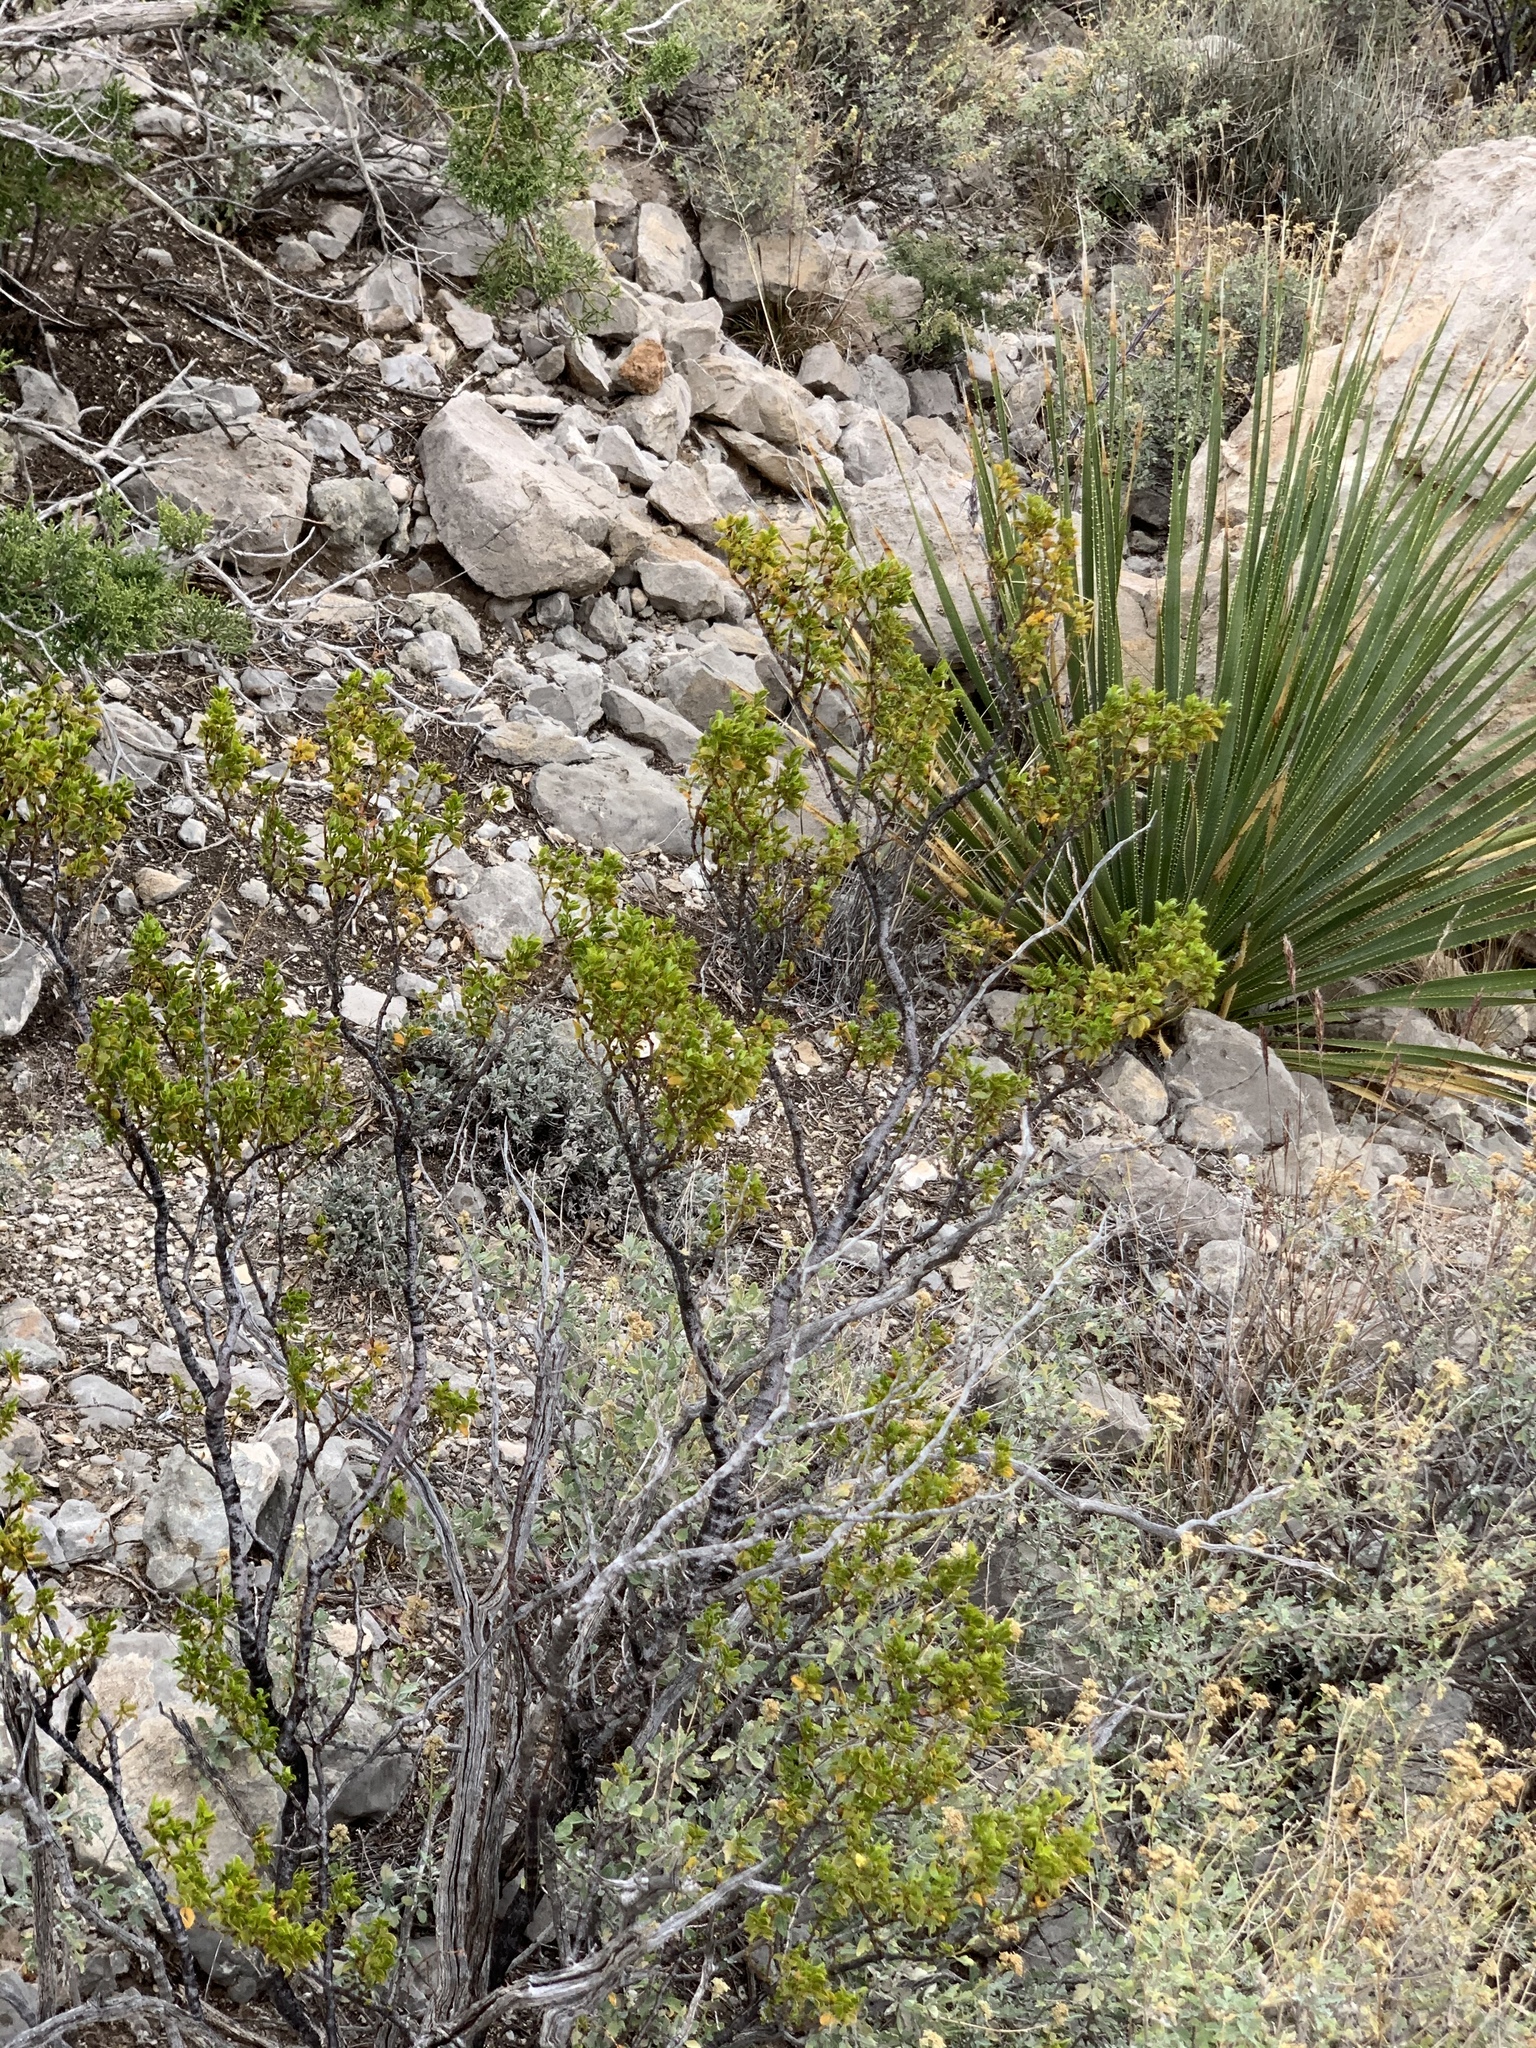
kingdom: Plantae
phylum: Tracheophyta
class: Magnoliopsida
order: Zygophyllales
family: Zygophyllaceae
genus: Larrea
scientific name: Larrea tridentata
